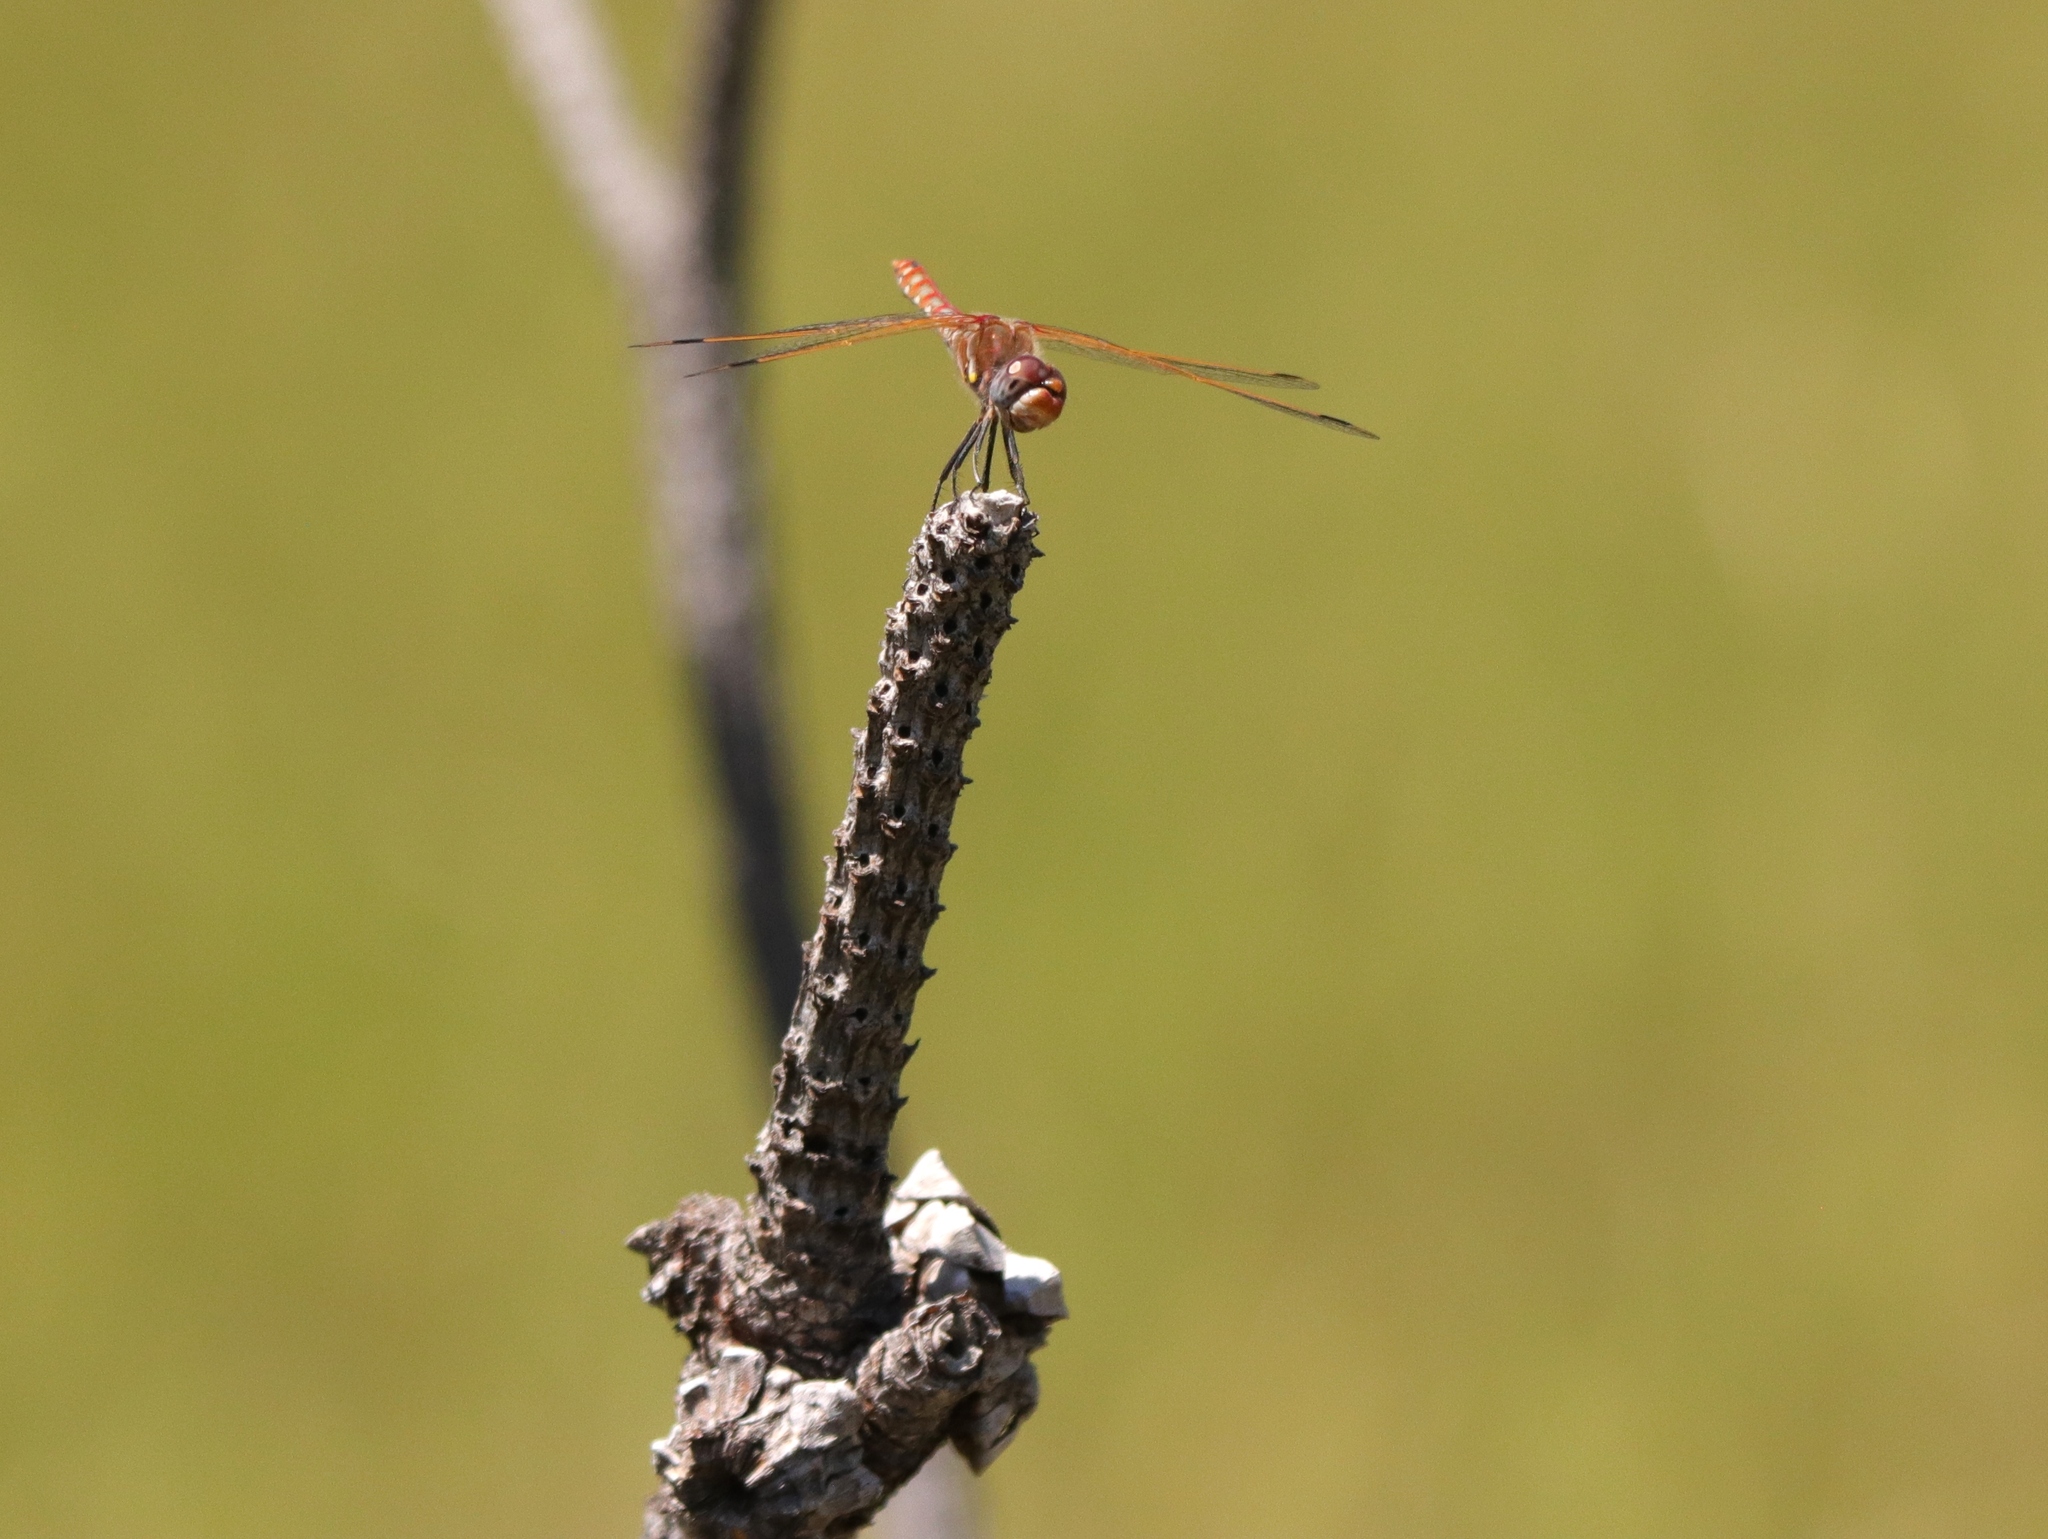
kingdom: Animalia
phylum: Arthropoda
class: Insecta
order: Odonata
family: Libellulidae
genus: Sympetrum
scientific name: Sympetrum corruptum
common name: Variegated meadowhawk
